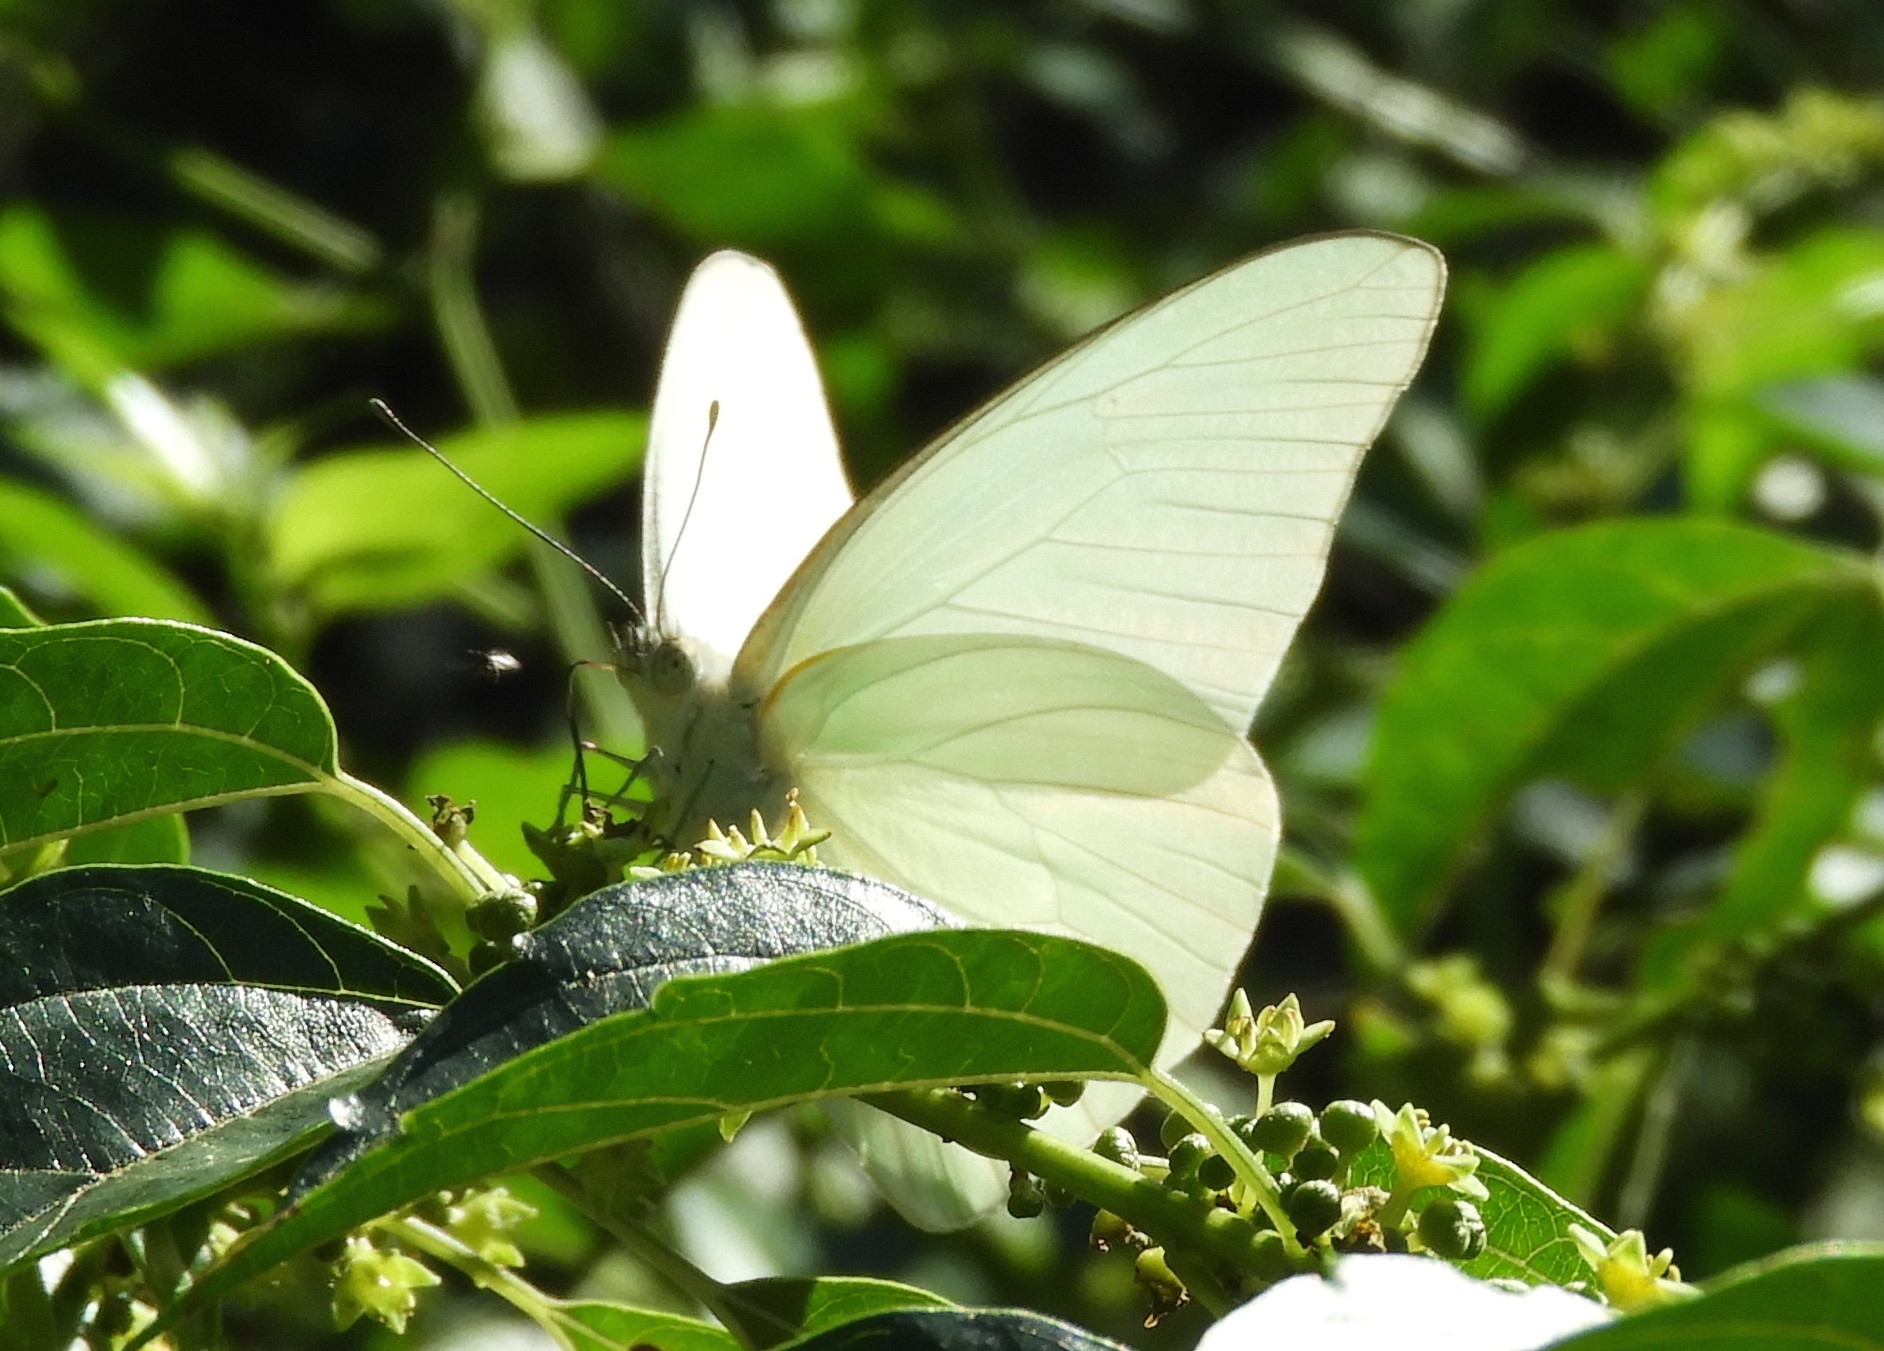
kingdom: Animalia
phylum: Arthropoda
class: Insecta
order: Lepidoptera
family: Pieridae
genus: Glutophrissa
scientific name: Glutophrissa drusilla
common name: Florida white
